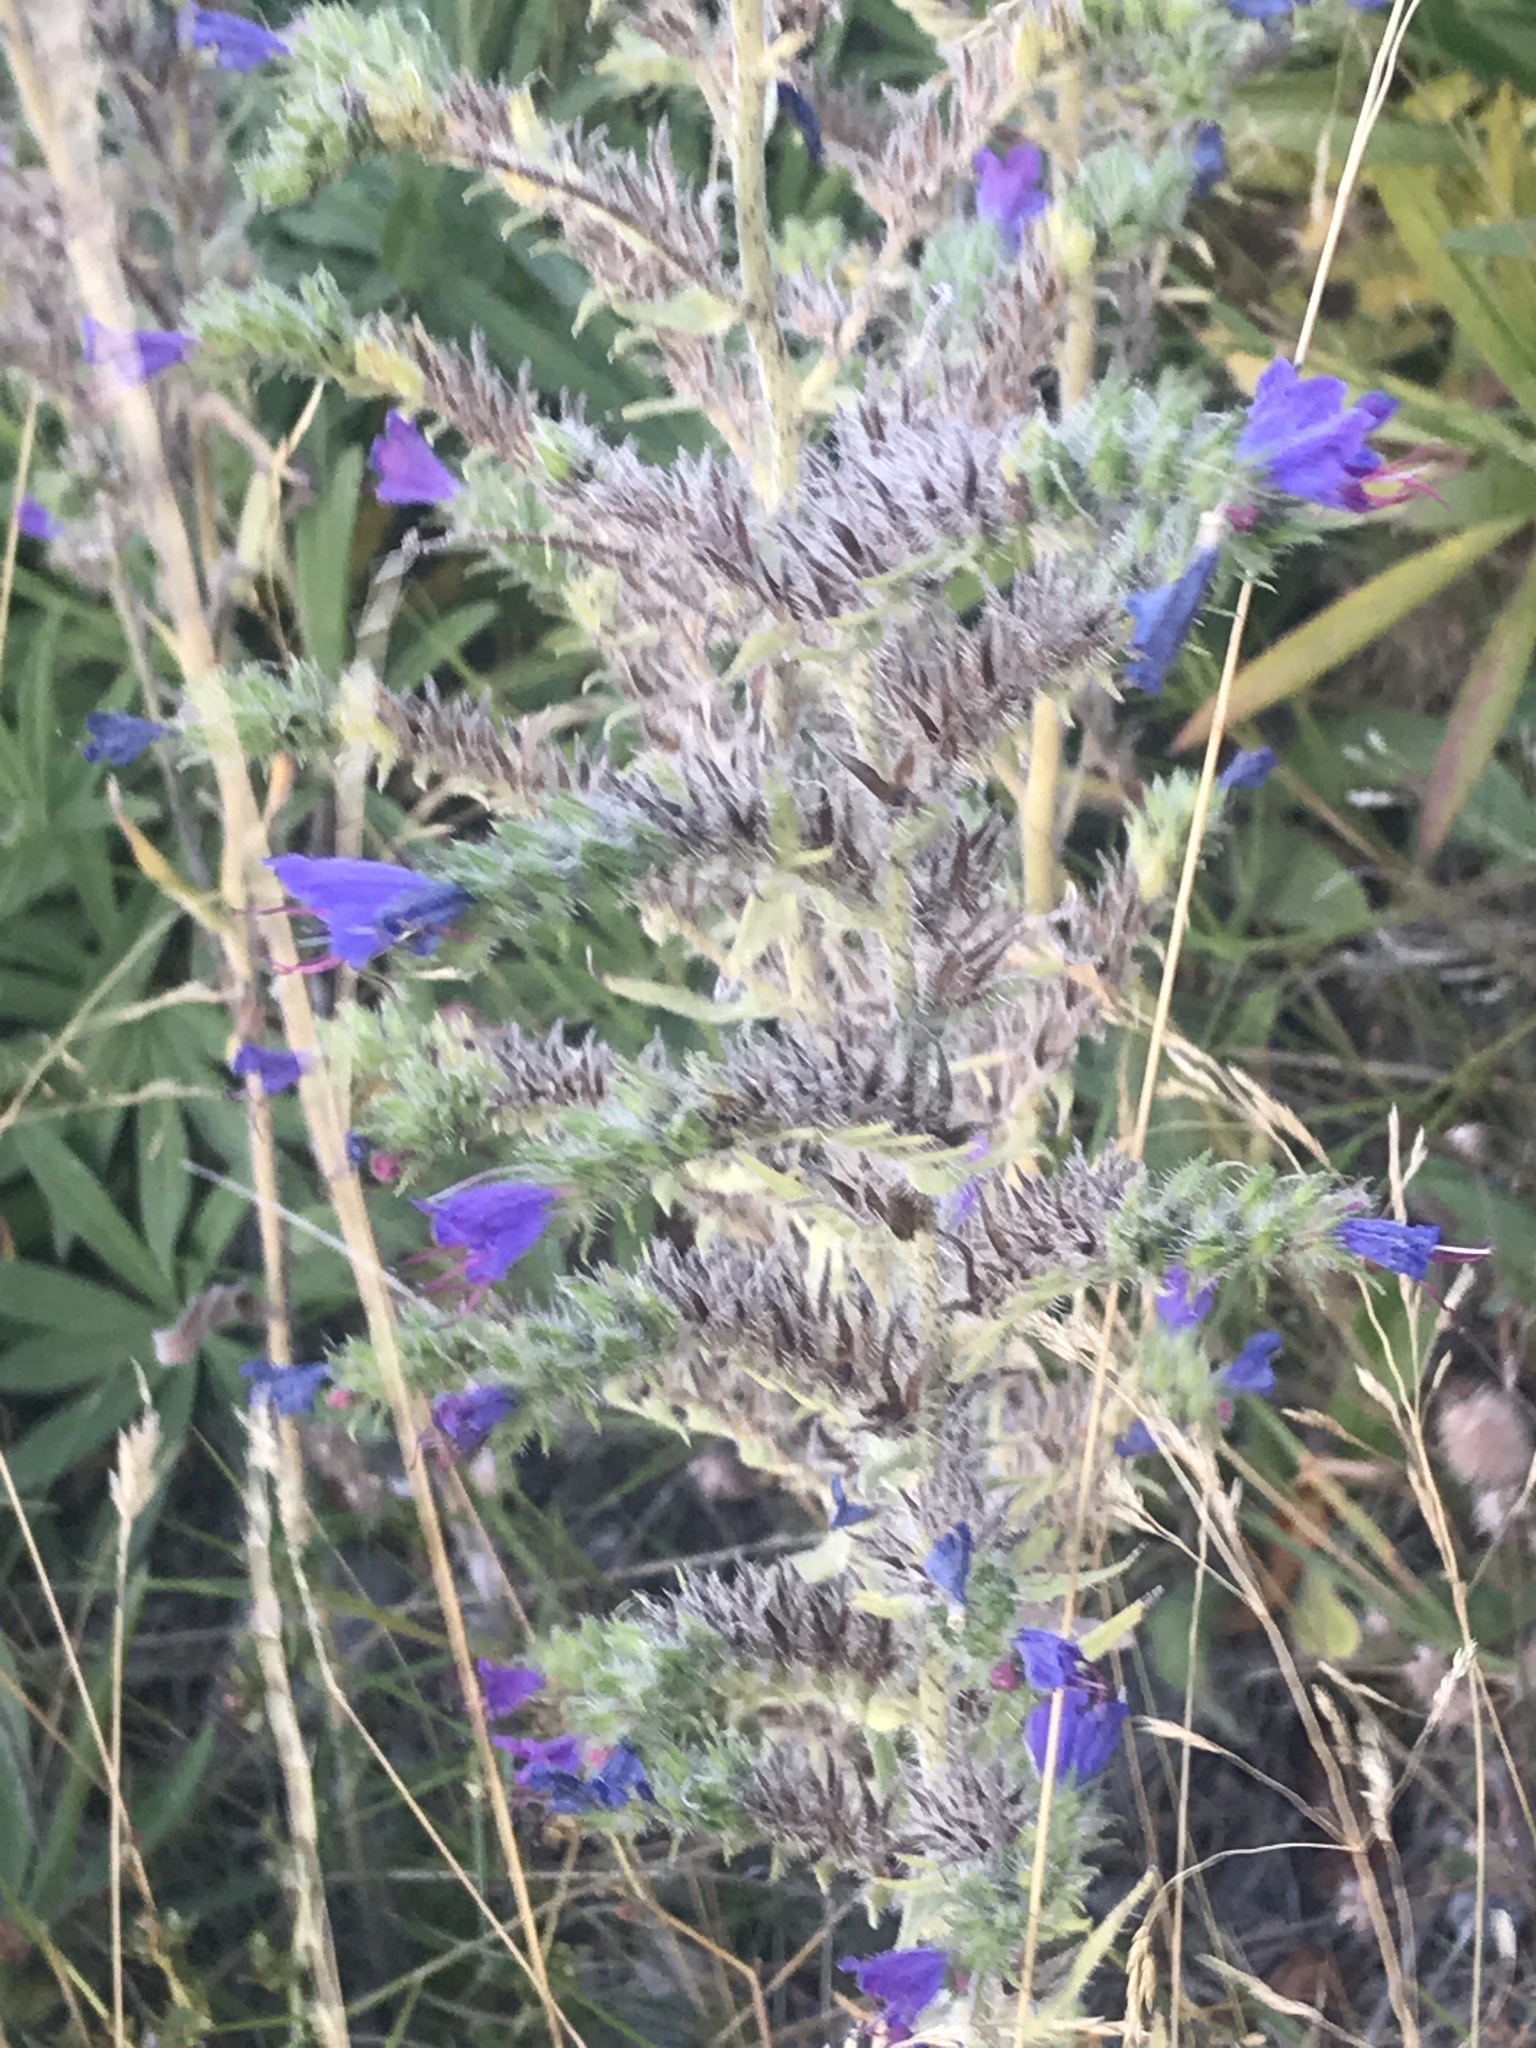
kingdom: Plantae
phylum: Tracheophyta
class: Magnoliopsida
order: Boraginales
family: Boraginaceae
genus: Echium
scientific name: Echium vulgare
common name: Common viper's bugloss
